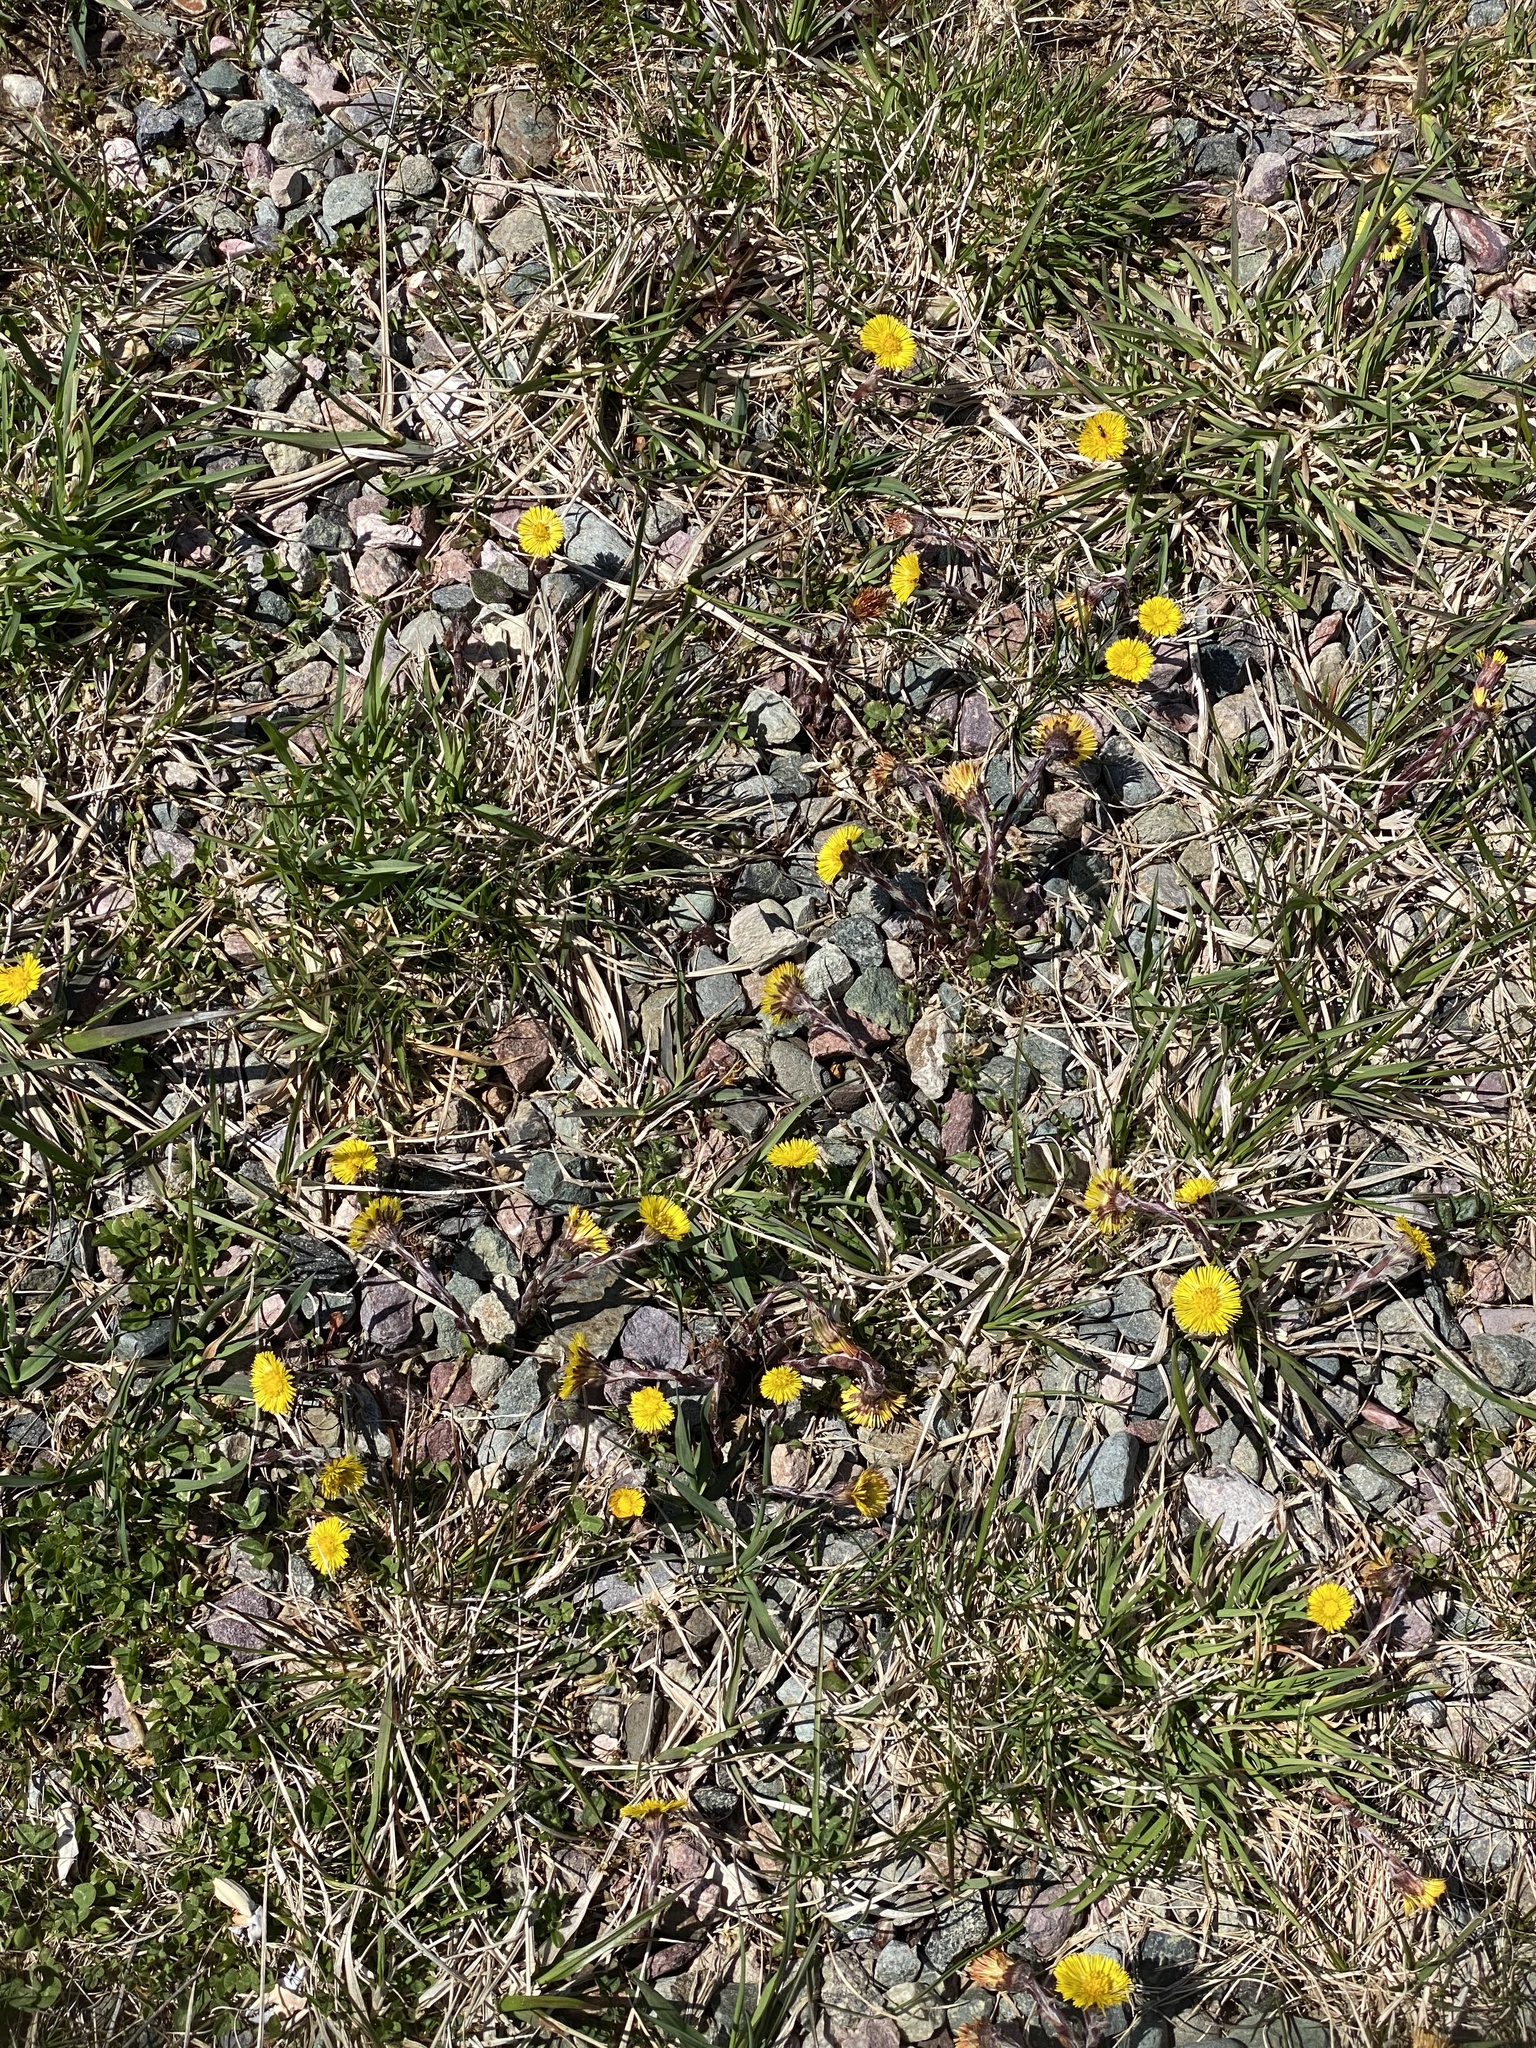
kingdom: Plantae
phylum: Tracheophyta
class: Magnoliopsida
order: Asterales
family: Asteraceae
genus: Tussilago
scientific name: Tussilago farfara
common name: Coltsfoot
